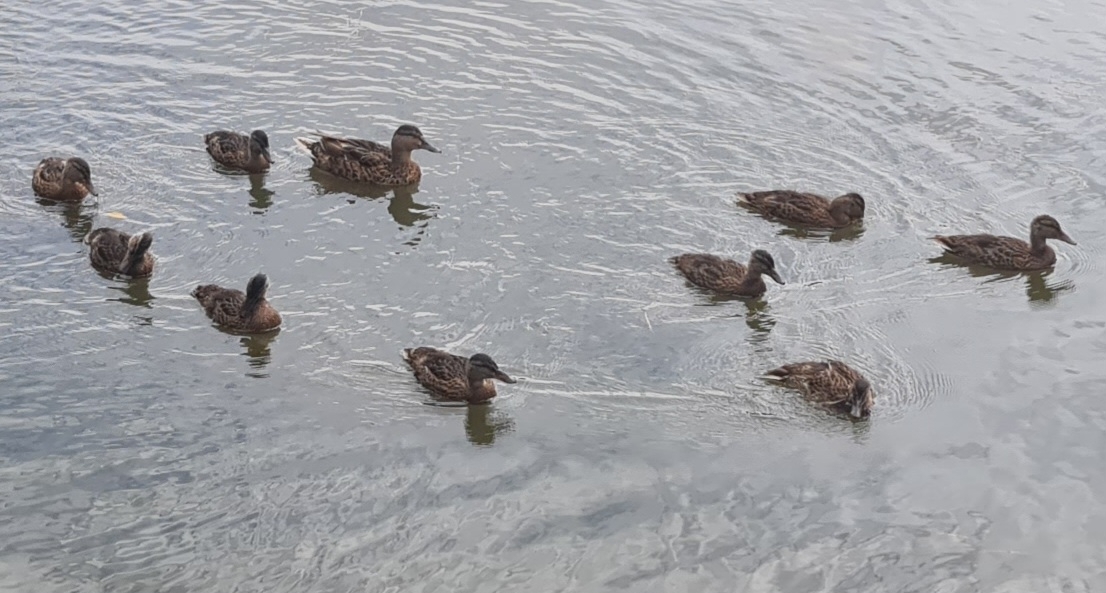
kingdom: Animalia
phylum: Chordata
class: Aves
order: Anseriformes
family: Anatidae
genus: Anas
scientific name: Anas platyrhynchos
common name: Mallard
